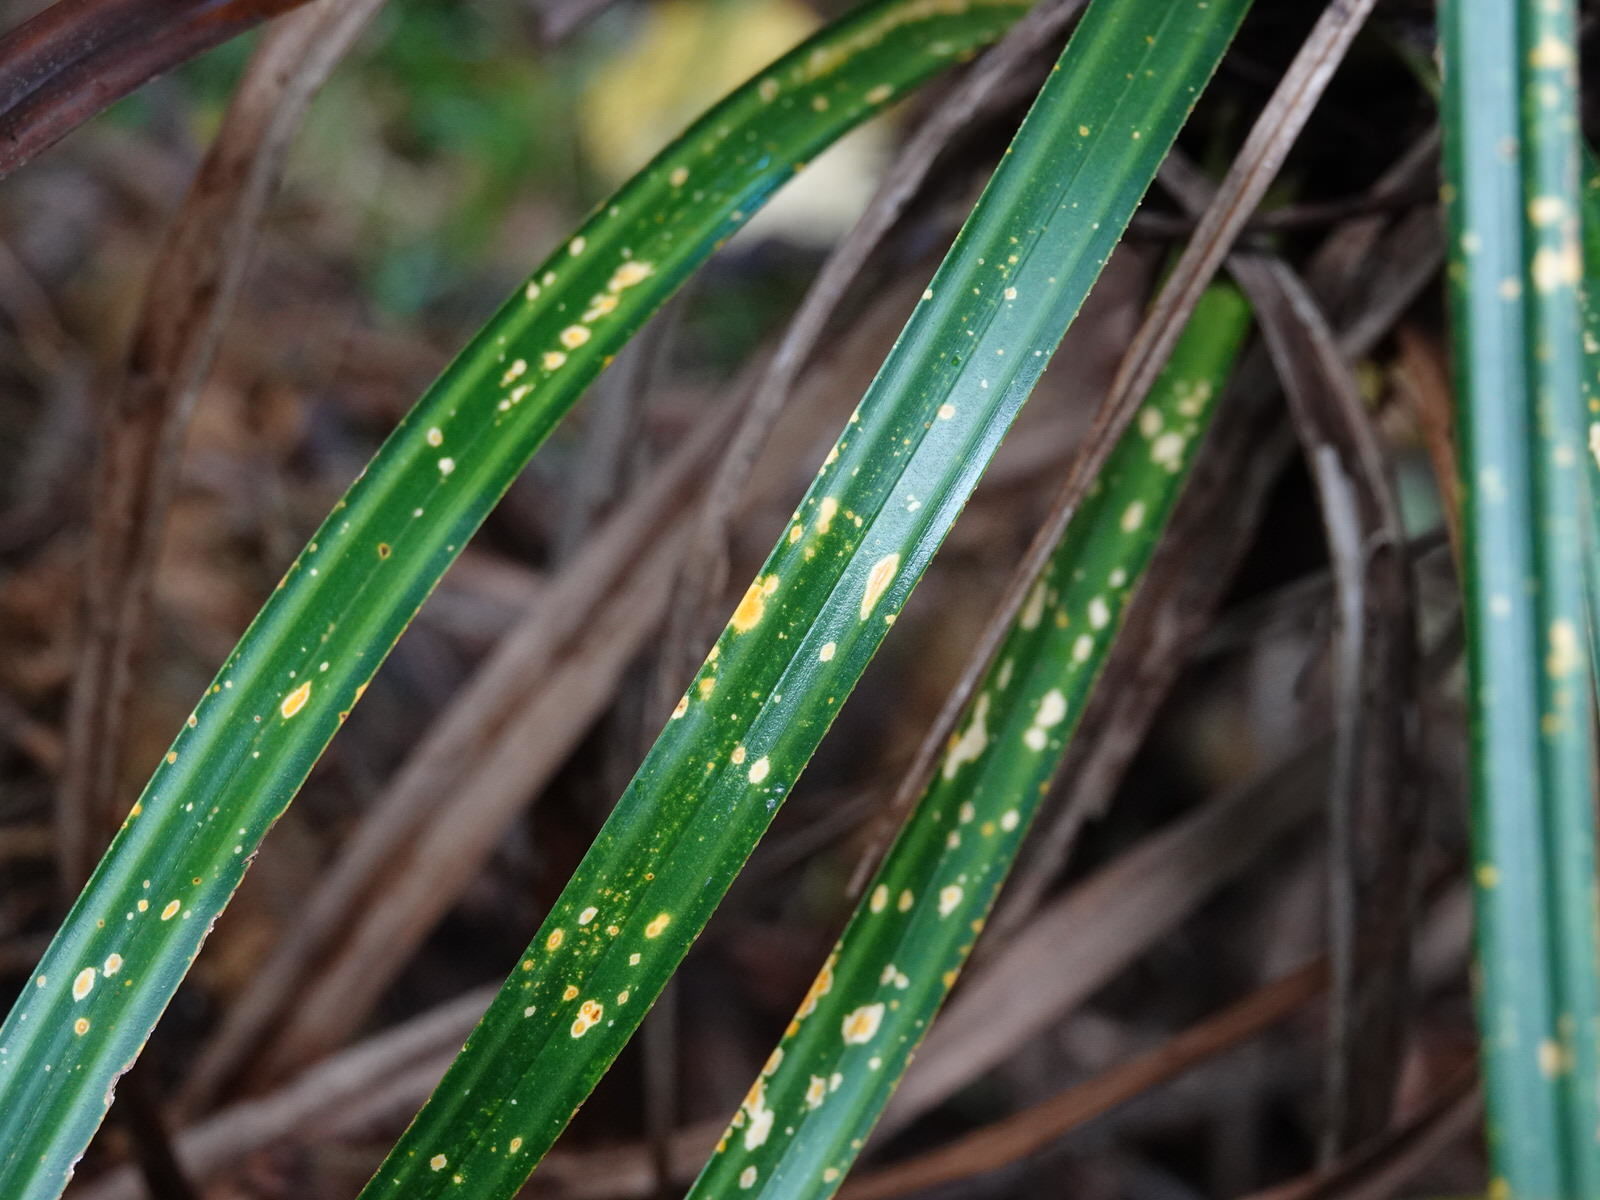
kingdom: Plantae
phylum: Tracheophyta
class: Liliopsida
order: Pandanales
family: Pandanaceae
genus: Freycinetia
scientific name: Freycinetia banksii
